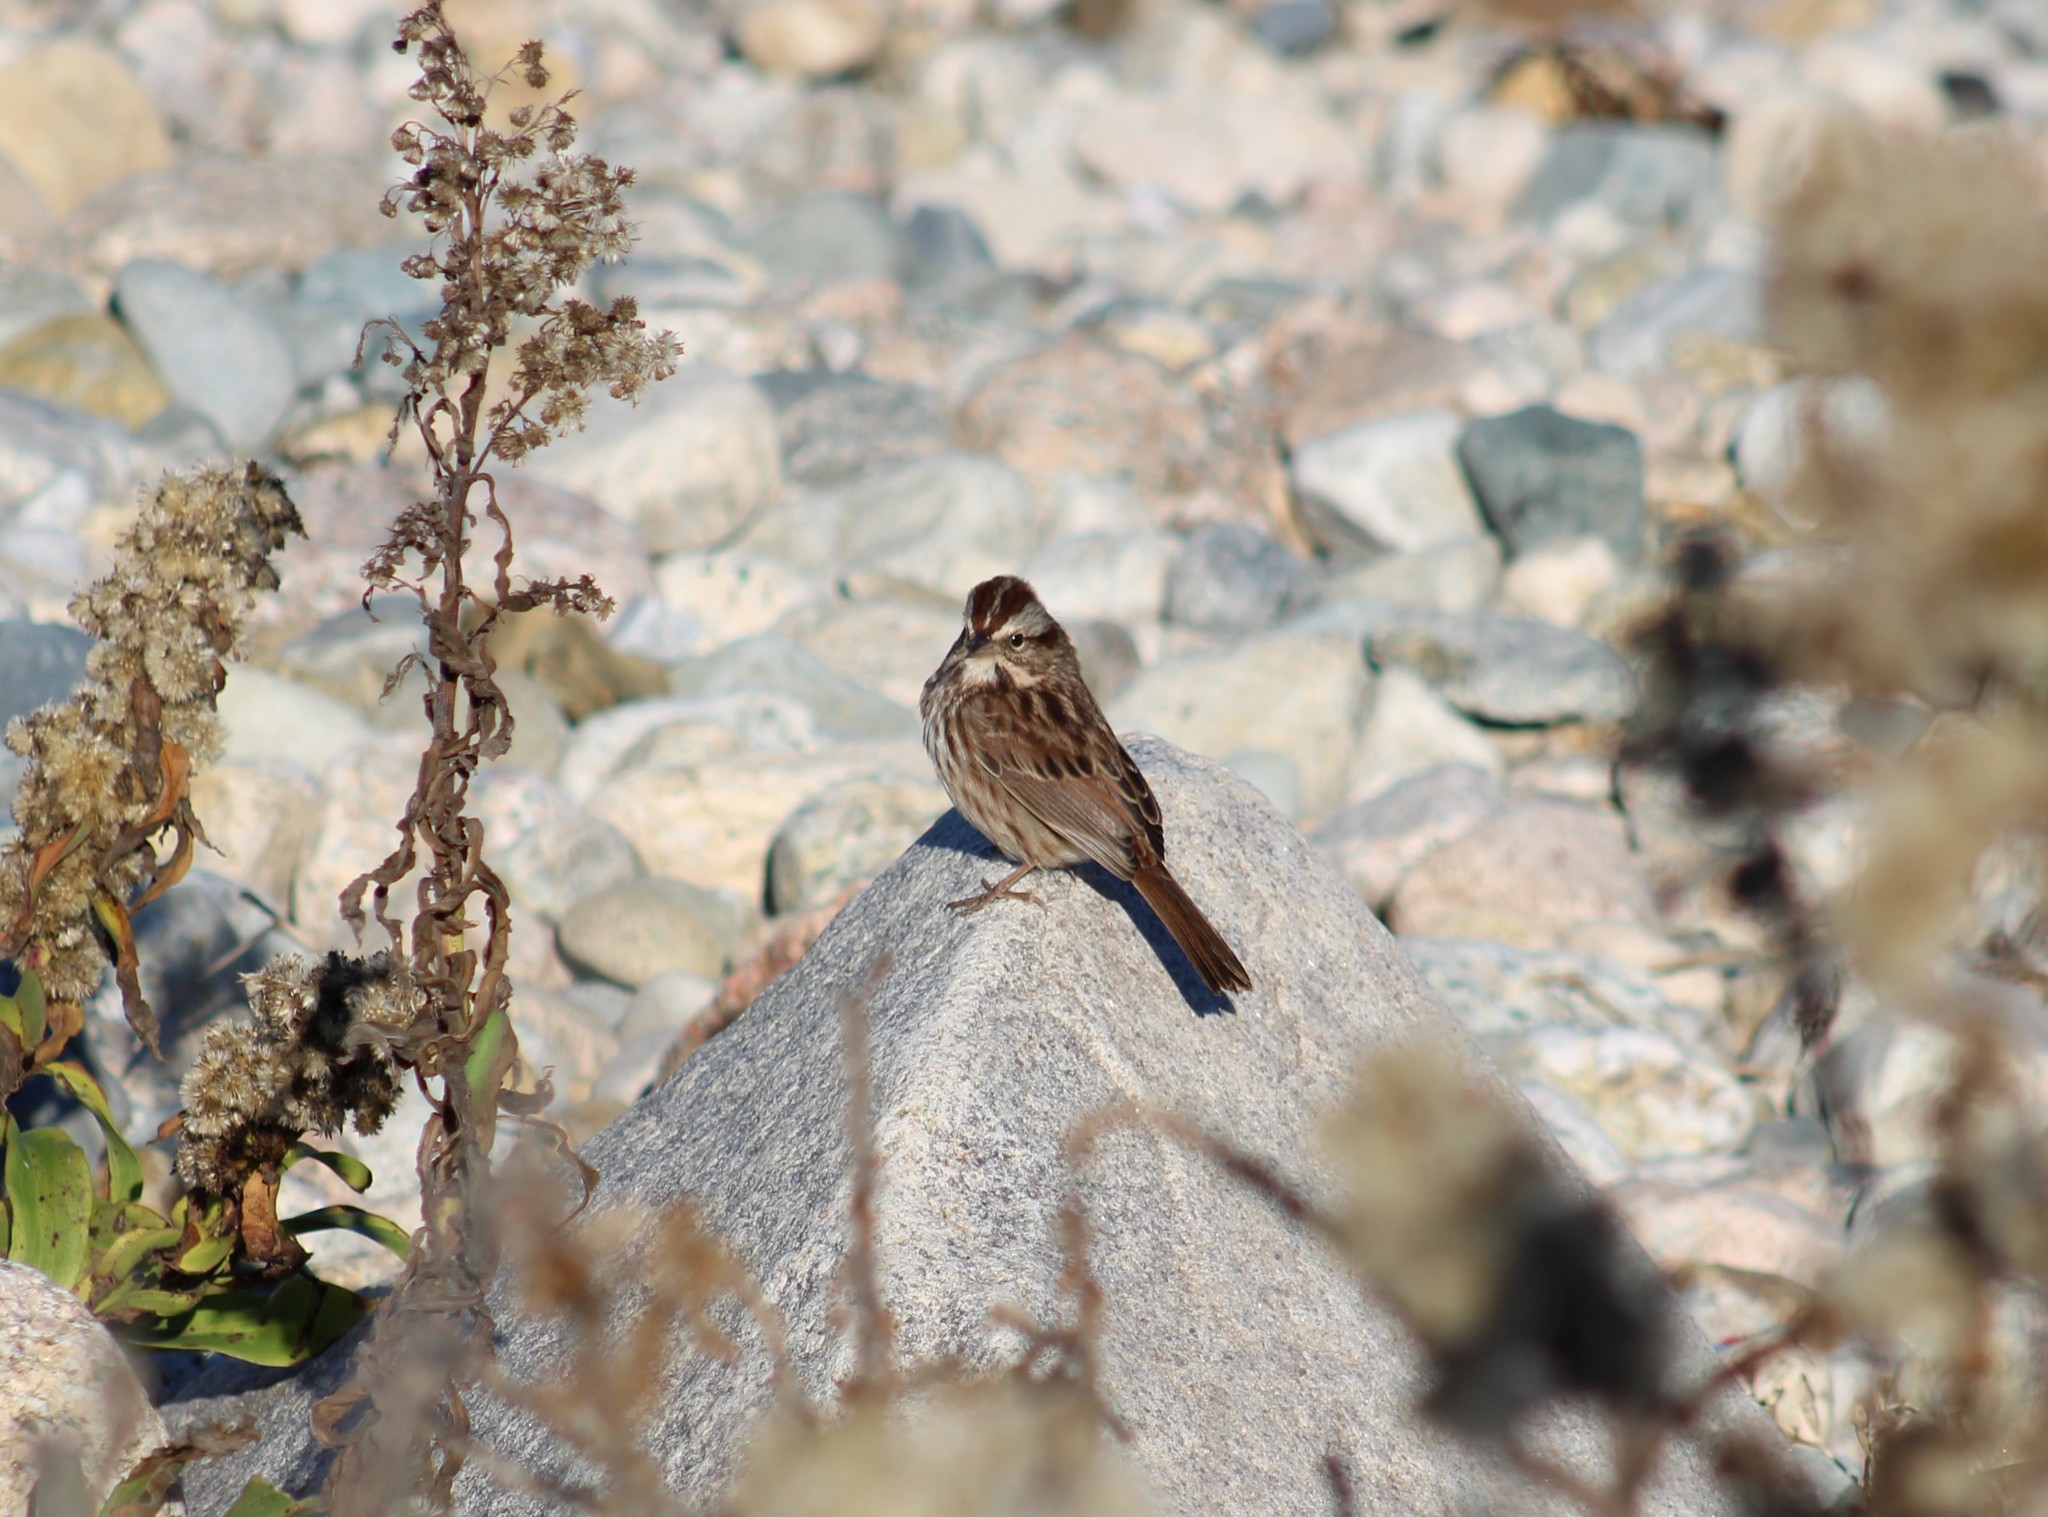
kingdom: Animalia
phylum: Chordata
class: Aves
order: Passeriformes
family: Passerellidae
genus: Melospiza
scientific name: Melospiza melodia
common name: Song sparrow
